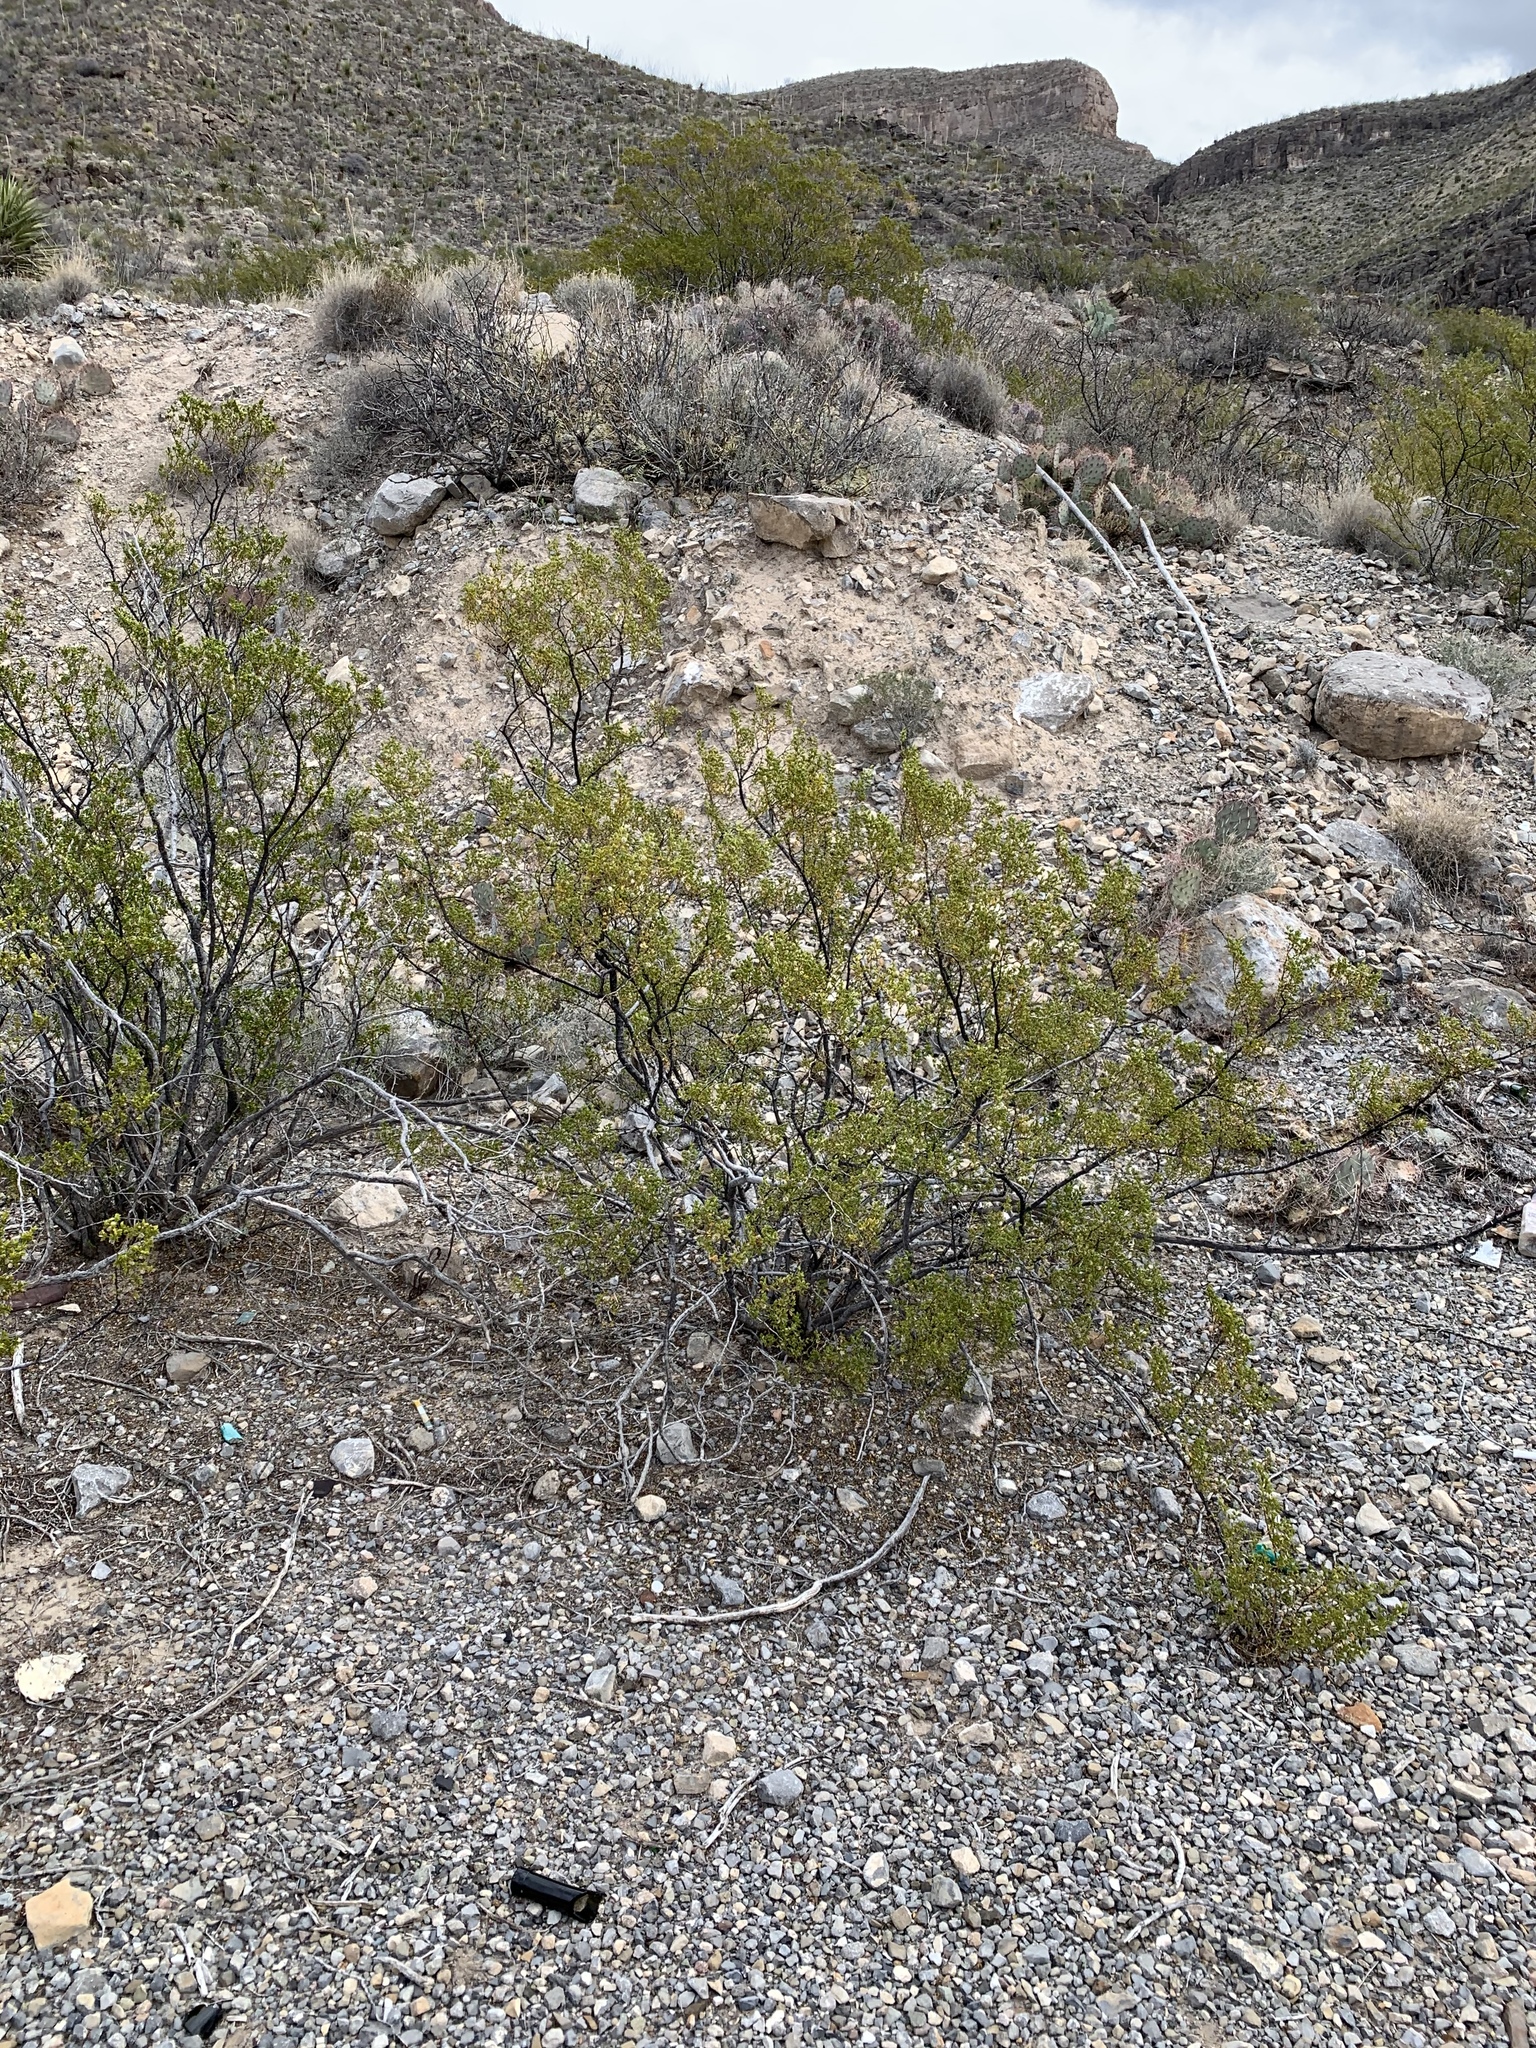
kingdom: Plantae
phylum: Tracheophyta
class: Magnoliopsida
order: Zygophyllales
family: Zygophyllaceae
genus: Larrea
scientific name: Larrea tridentata
